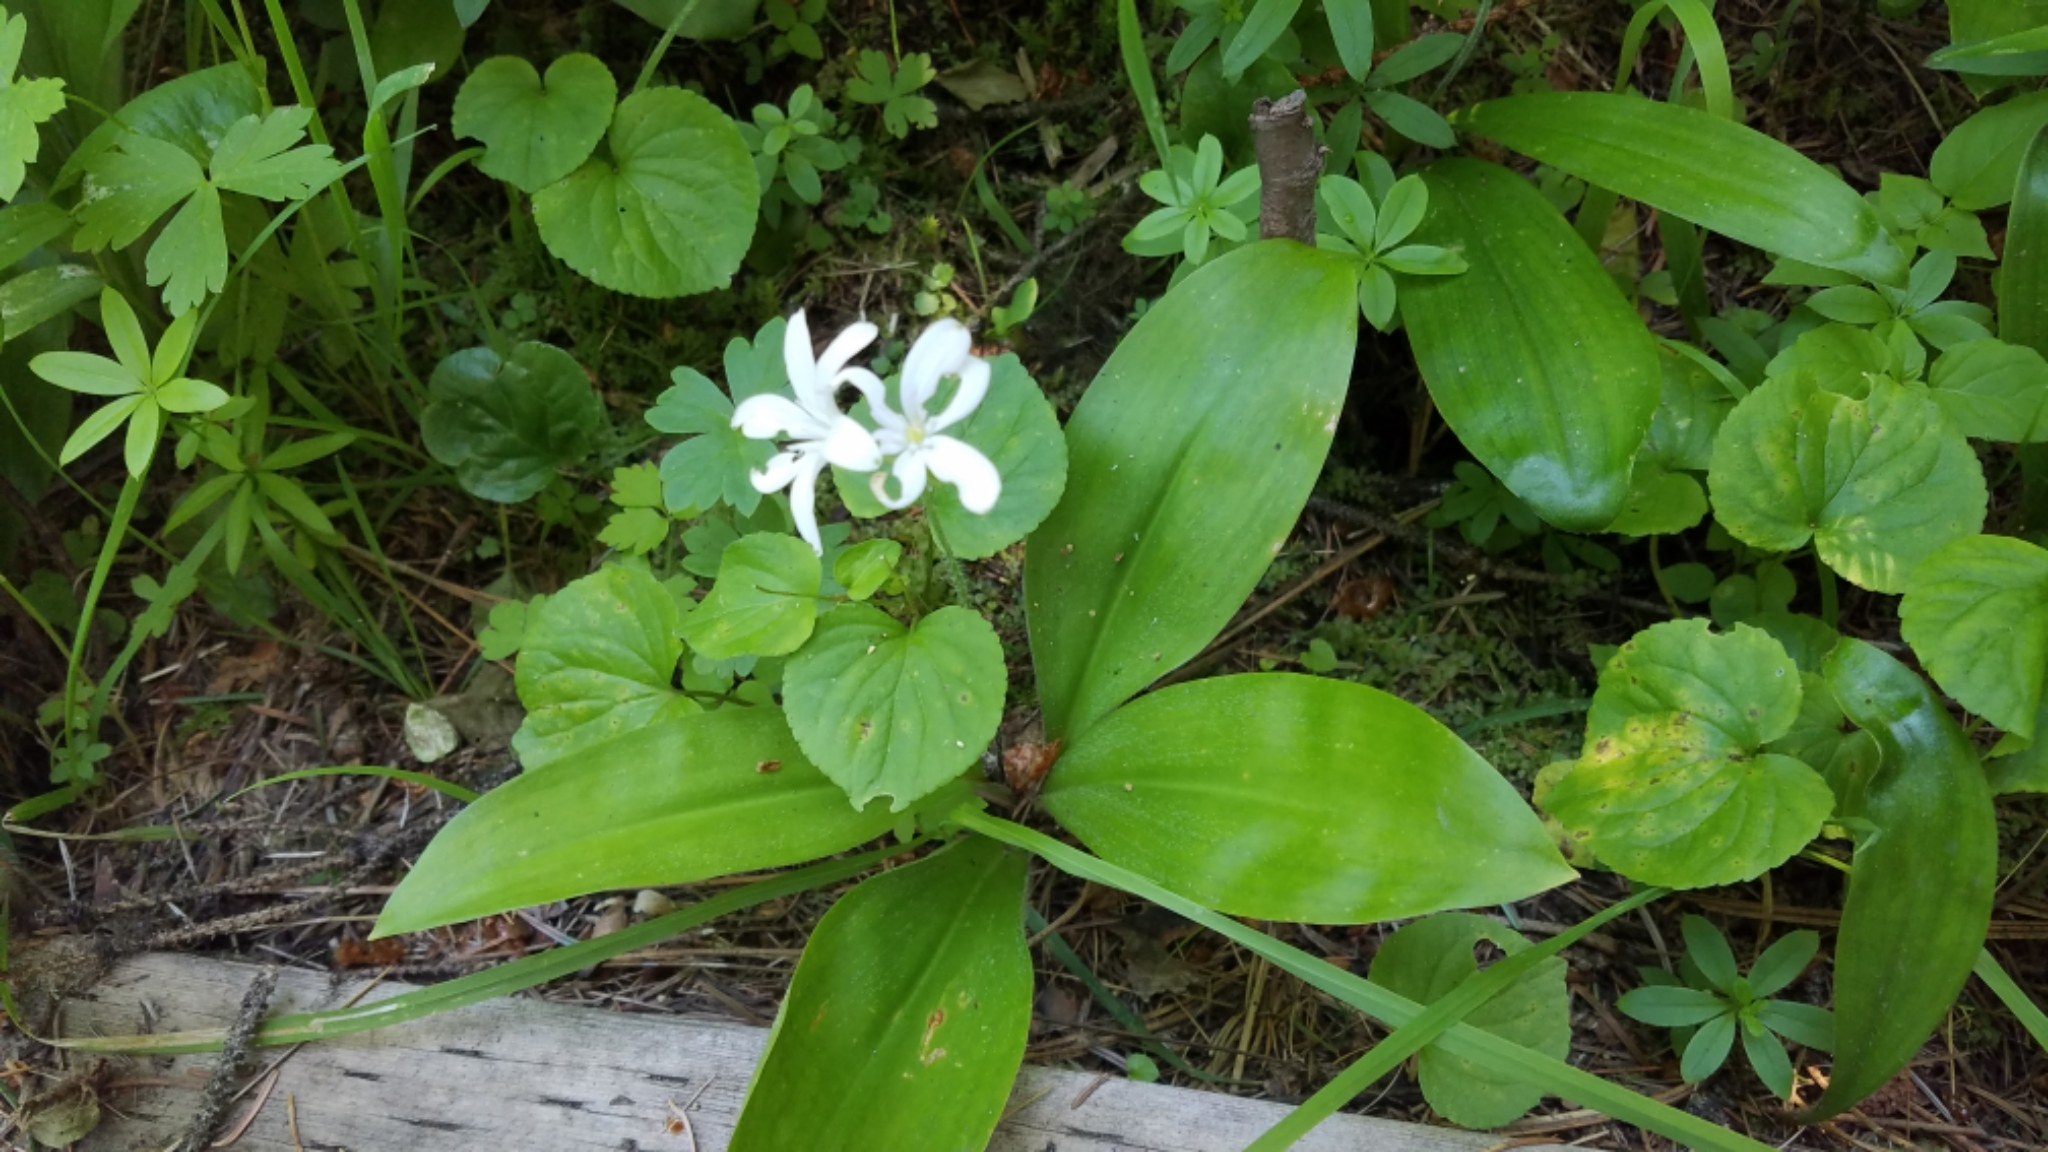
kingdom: Plantae
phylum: Tracheophyta
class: Liliopsida
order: Liliales
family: Liliaceae
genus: Clintonia
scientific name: Clintonia uniflora
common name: Queen's cup
